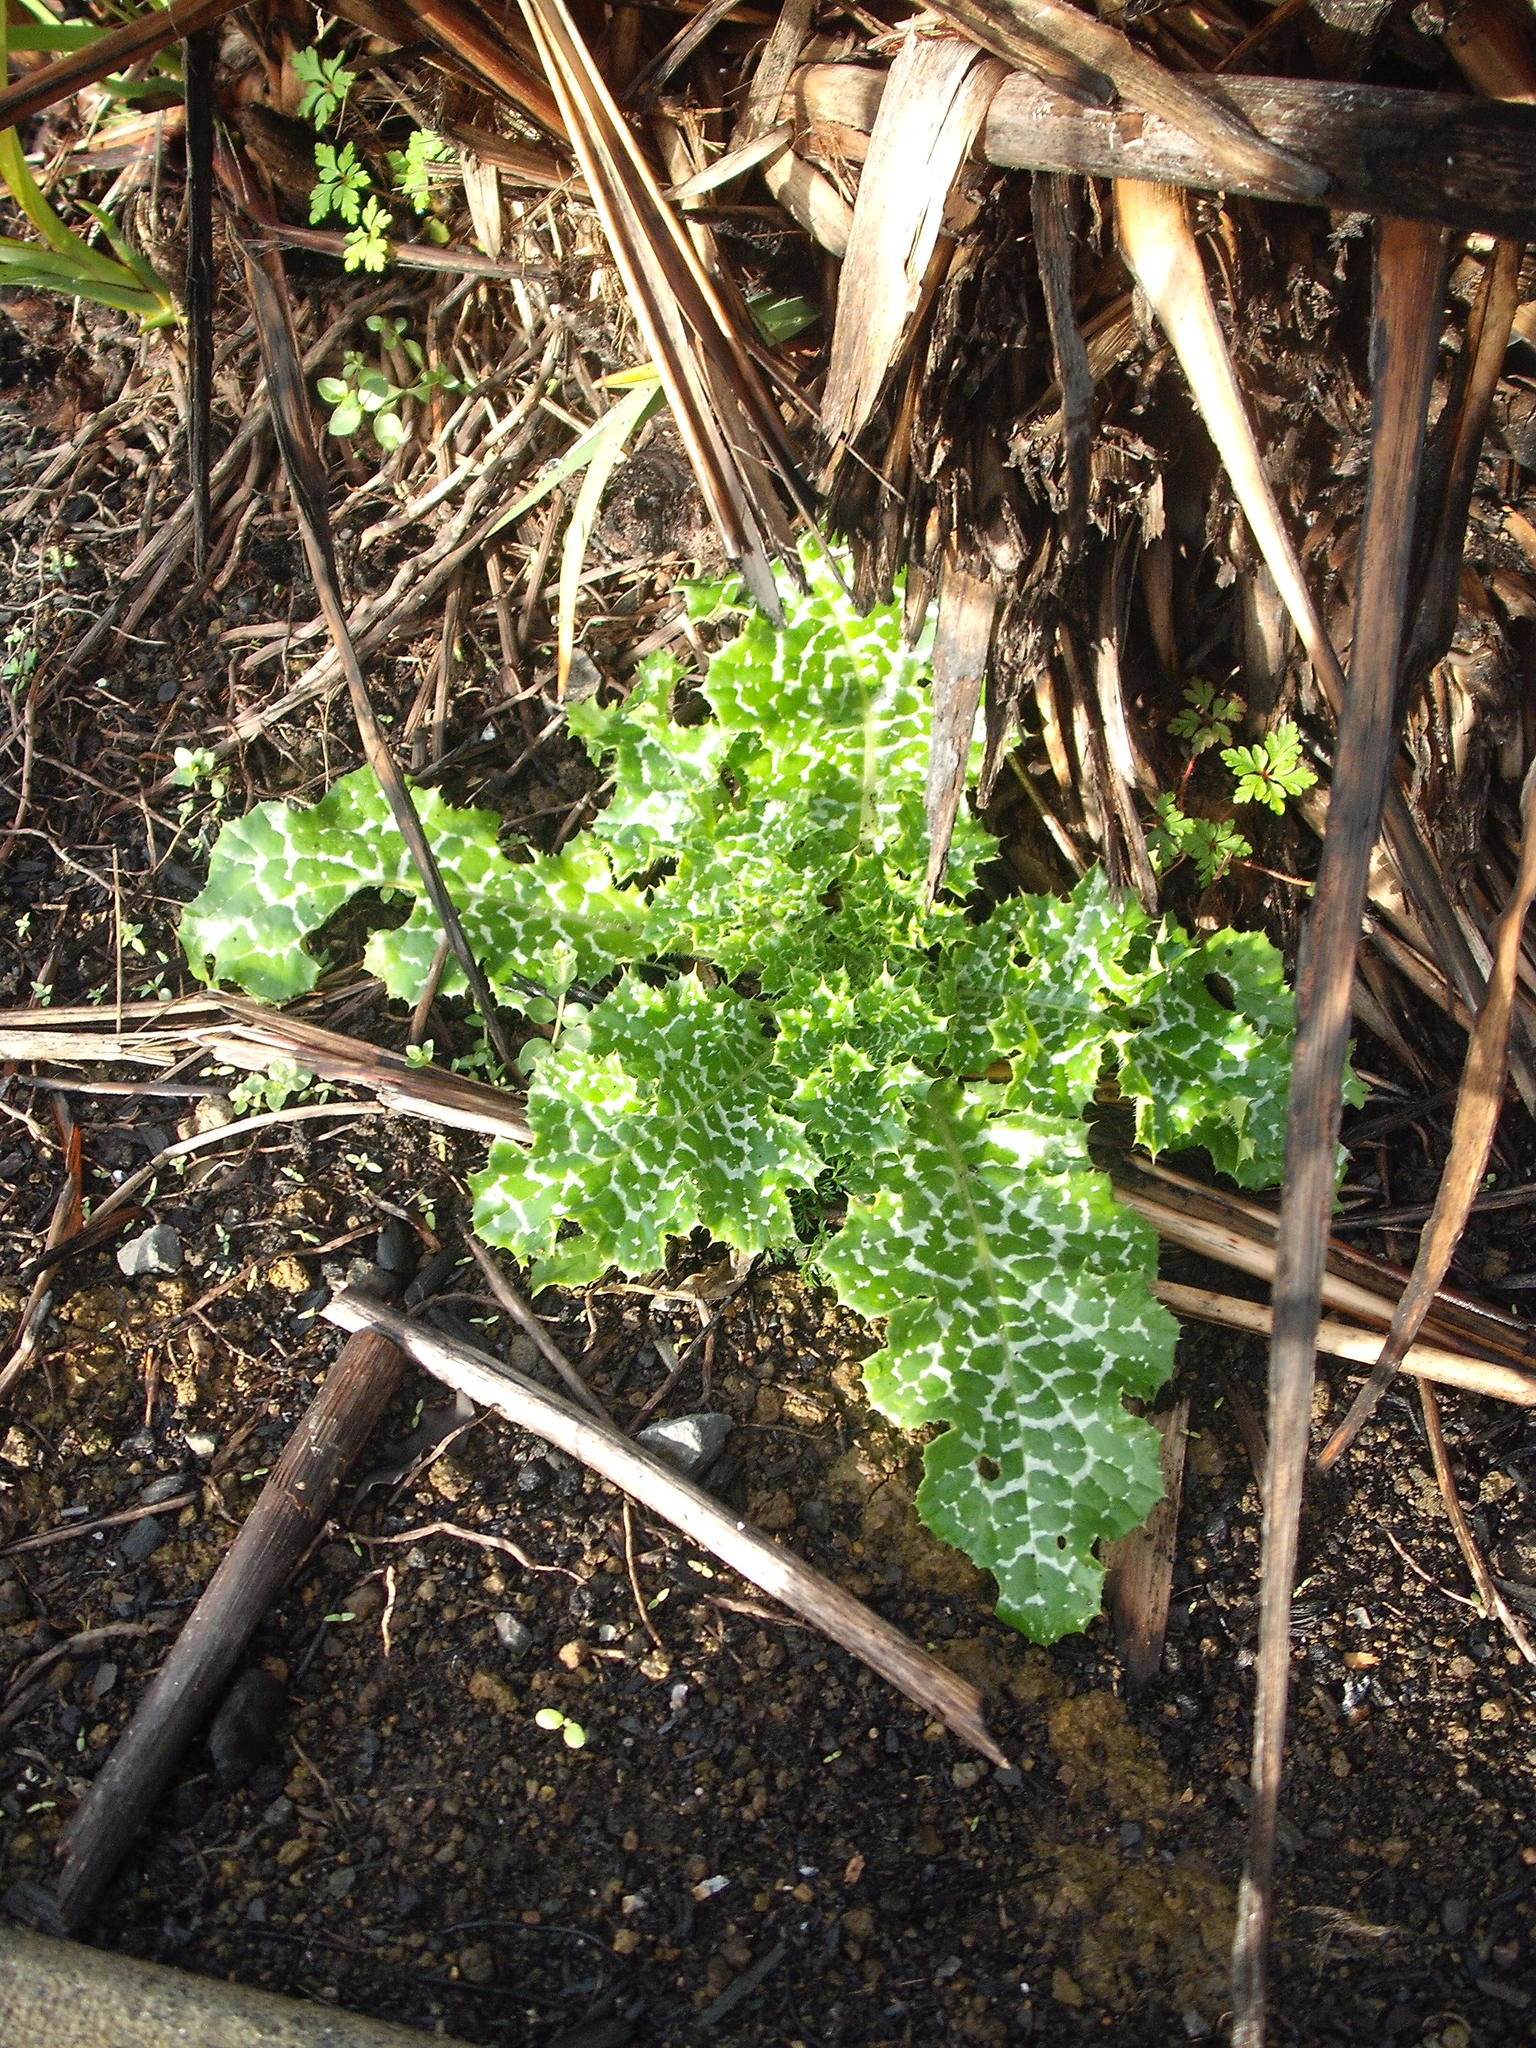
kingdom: Plantae
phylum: Tracheophyta
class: Magnoliopsida
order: Asterales
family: Asteraceae
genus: Silybum
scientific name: Silybum marianum
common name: Milk thistle
